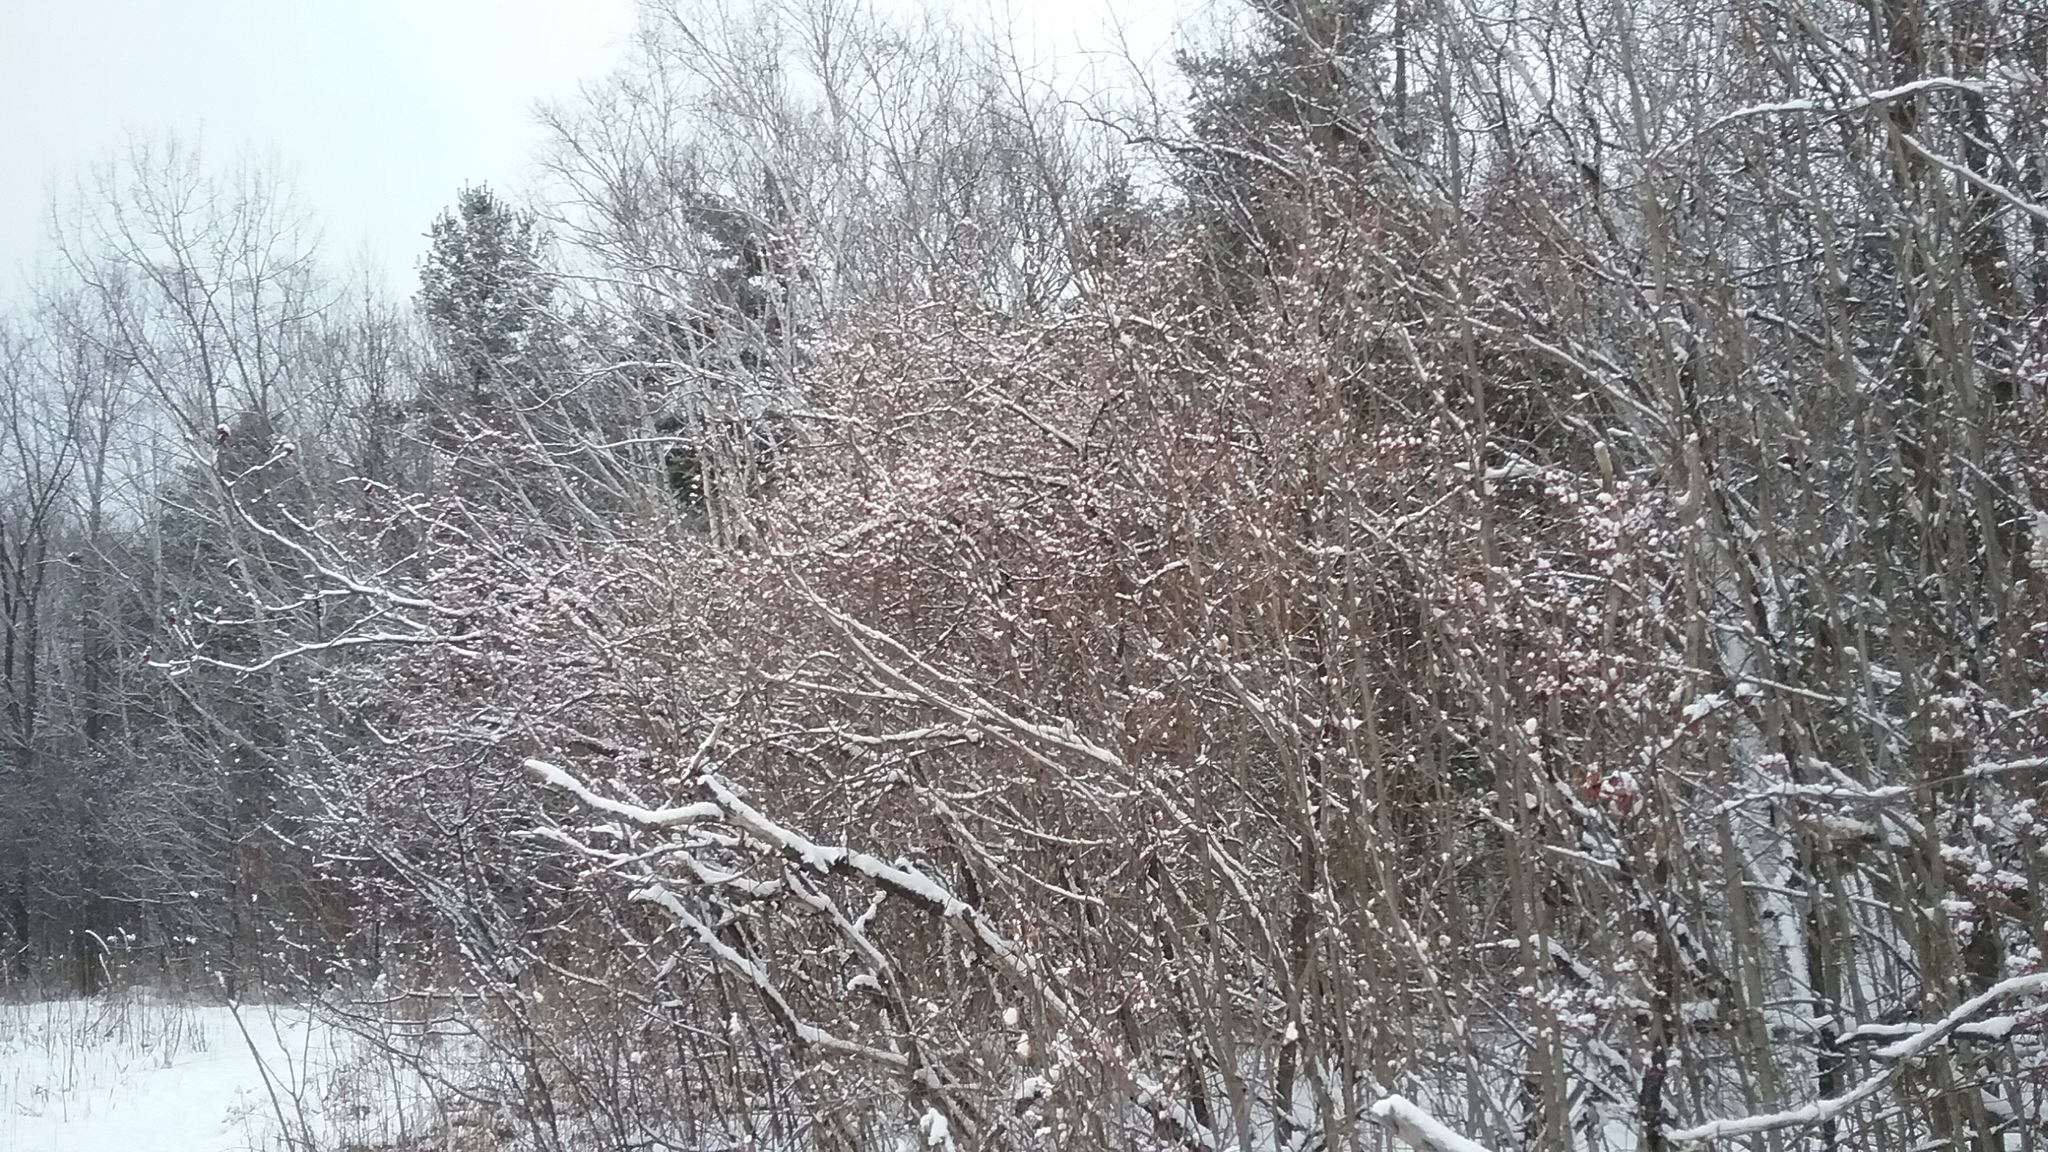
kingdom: Plantae
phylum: Tracheophyta
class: Magnoliopsida
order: Celastrales
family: Celastraceae
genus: Celastrus
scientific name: Celastrus orbiculatus
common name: Oriental bittersweet
